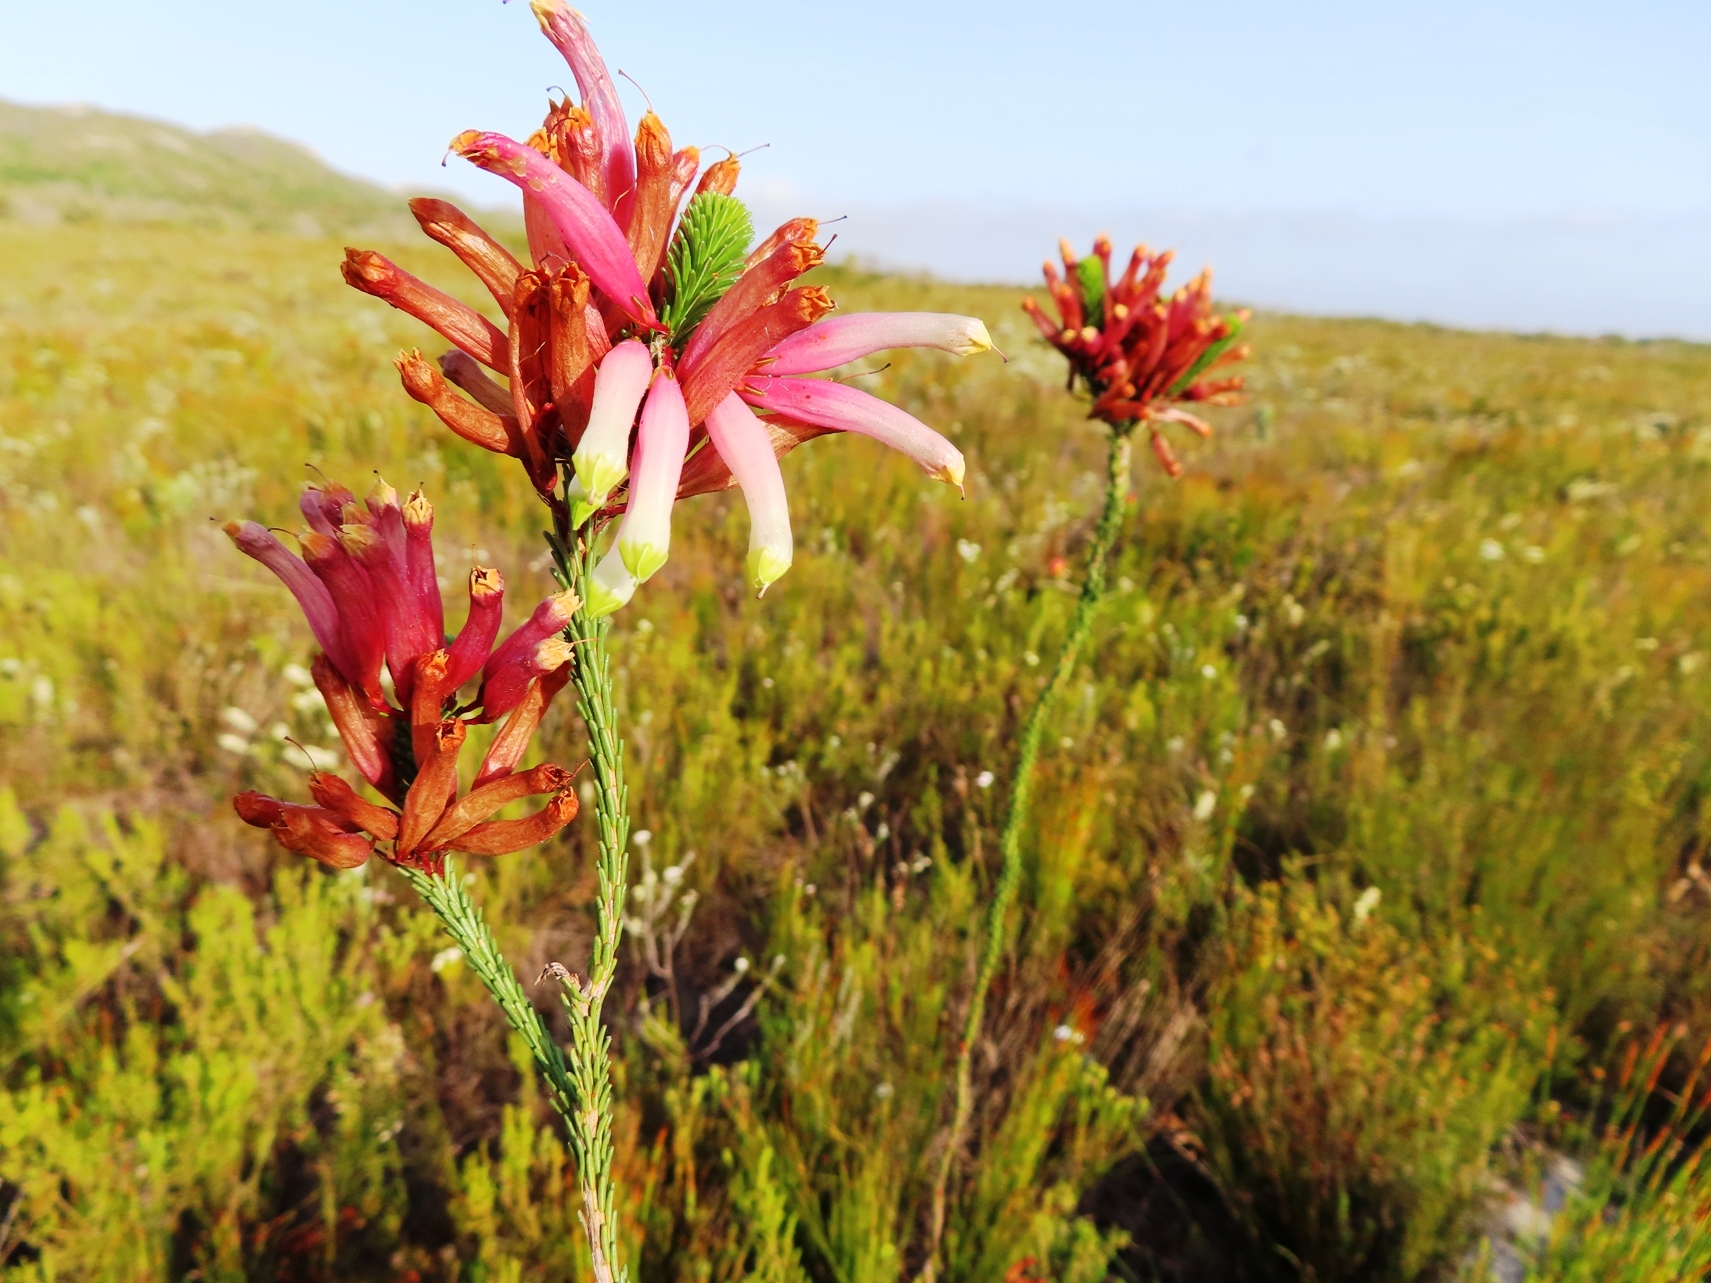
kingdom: Plantae
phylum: Tracheophyta
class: Magnoliopsida
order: Ericales
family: Ericaceae
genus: Erica
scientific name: Erica fascicularis
